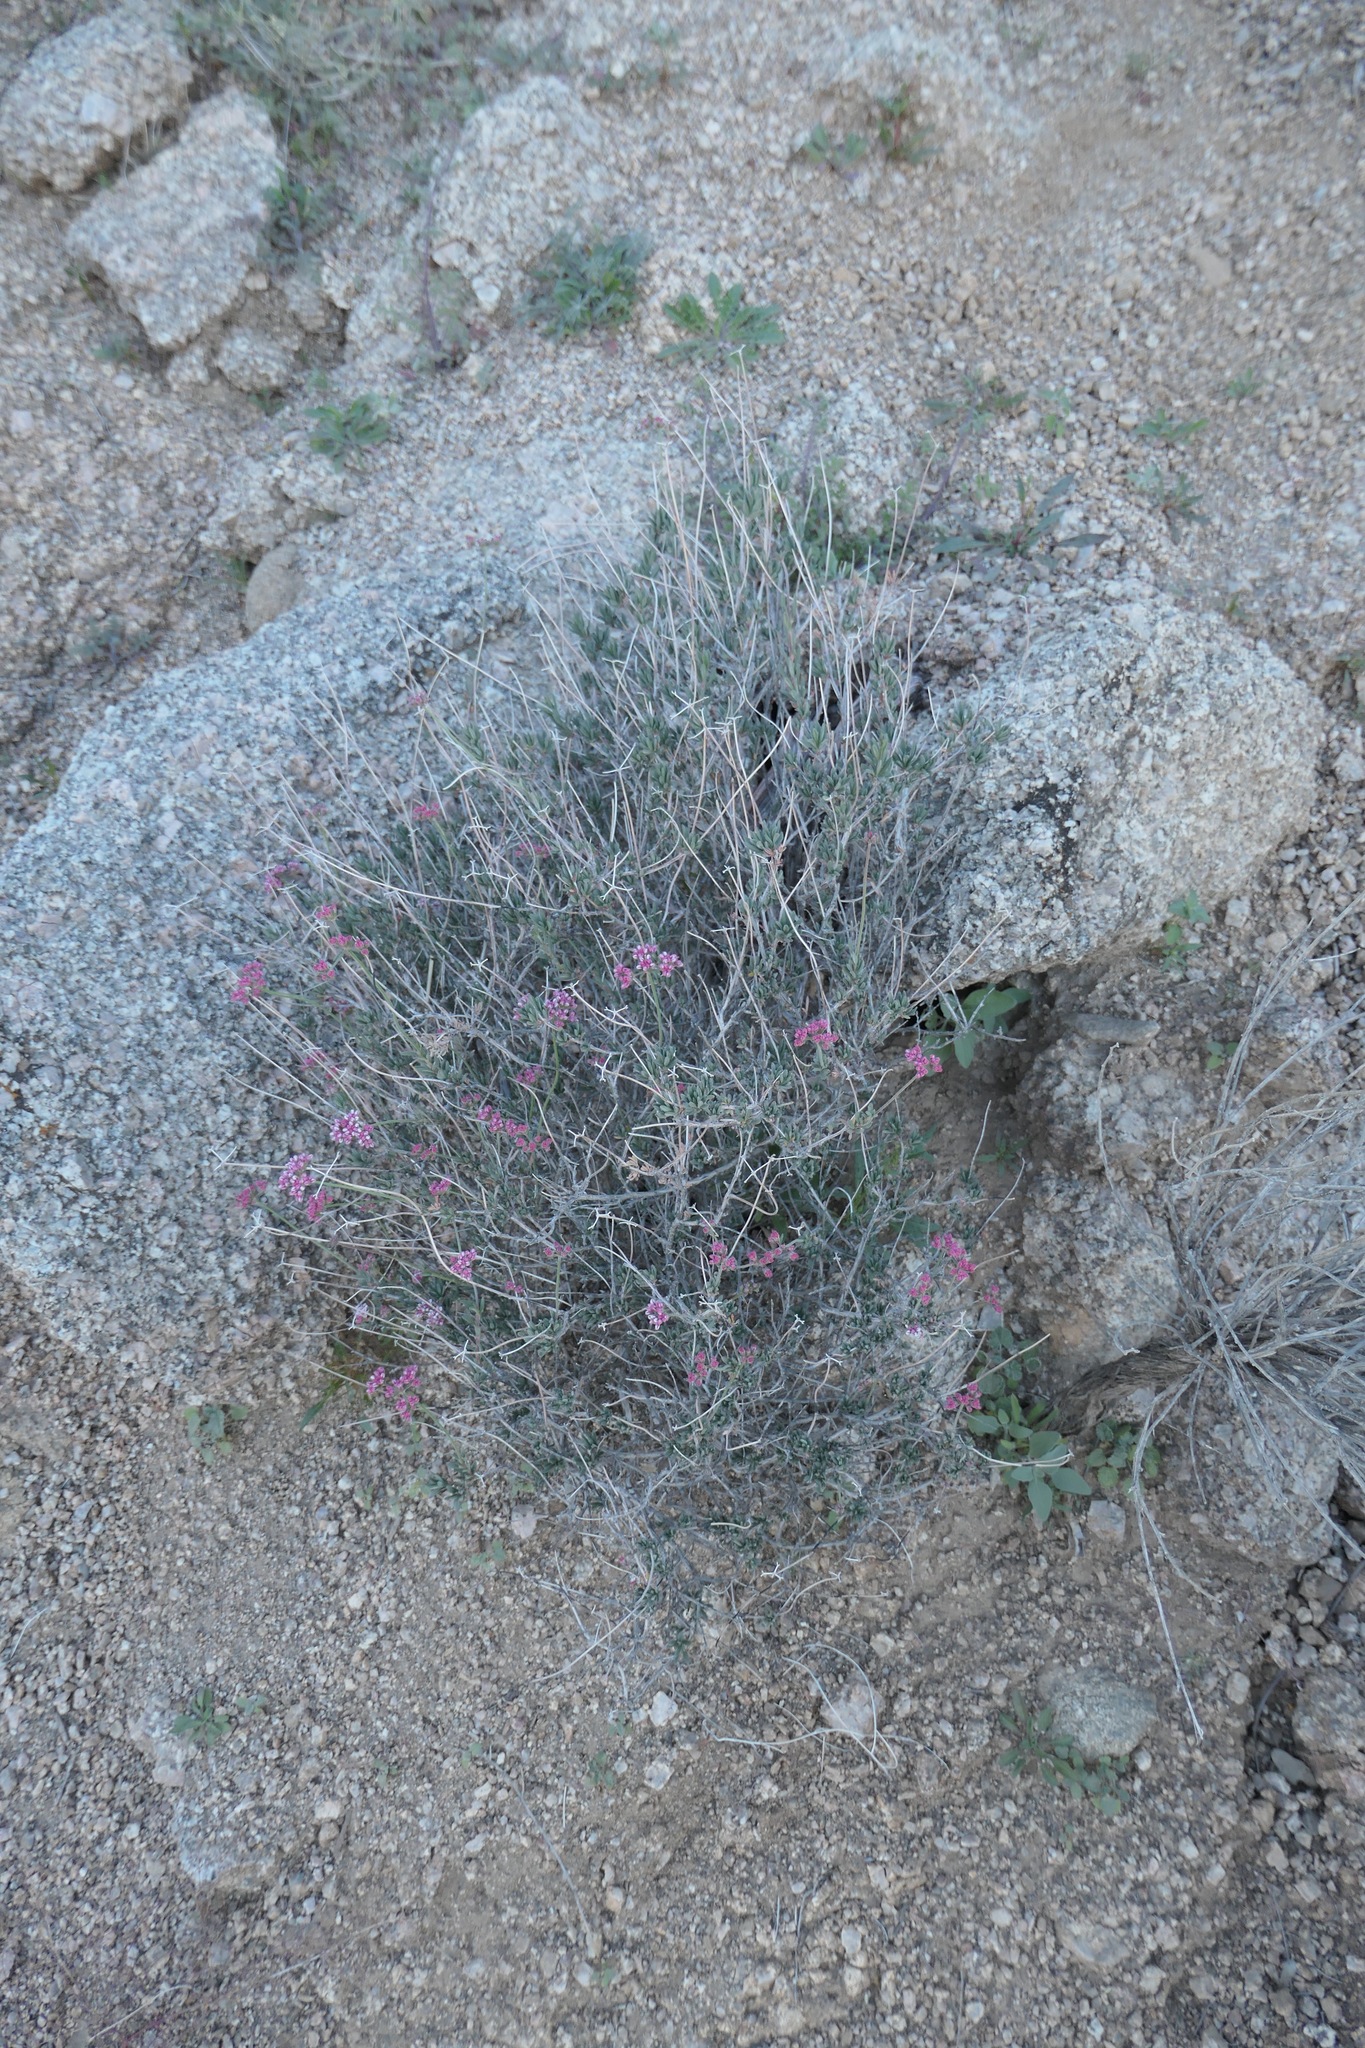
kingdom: Plantae
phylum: Tracheophyta
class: Magnoliopsida
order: Caryophyllales
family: Polygonaceae
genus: Eriogonum
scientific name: Eriogonum fasciculatum
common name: California wild buckwheat
